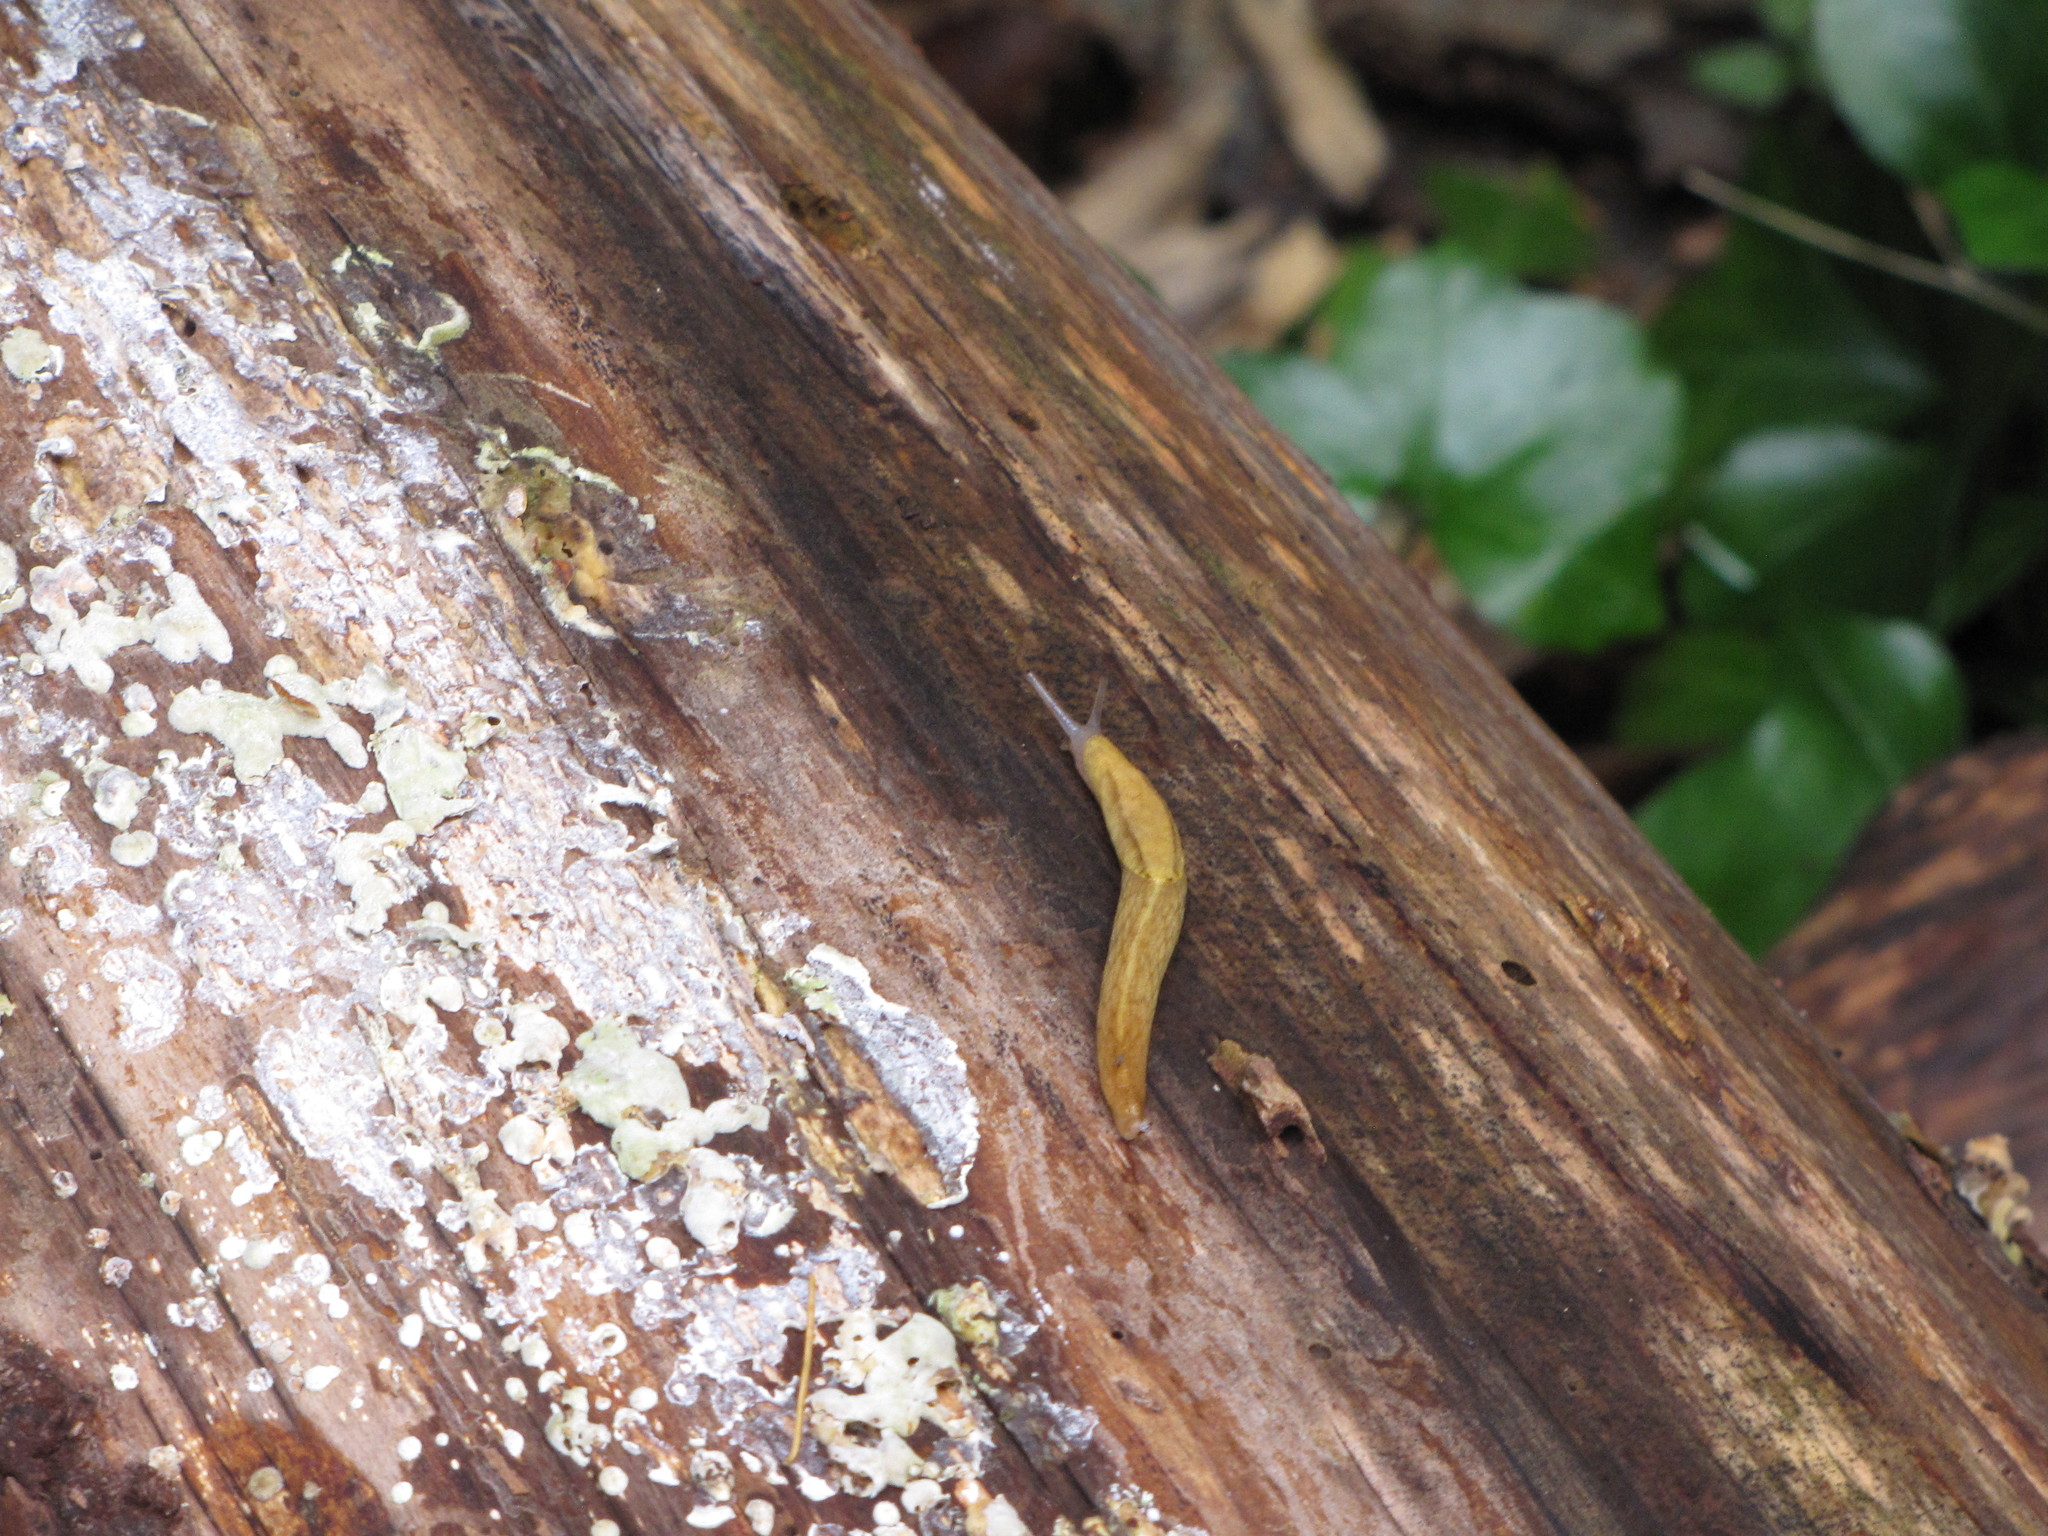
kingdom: Animalia
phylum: Mollusca
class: Gastropoda
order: Stylommatophora
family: Ariolimacidae
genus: Prophysaon
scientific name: Prophysaon foliolatum
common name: Yellow-bordered taildropper
